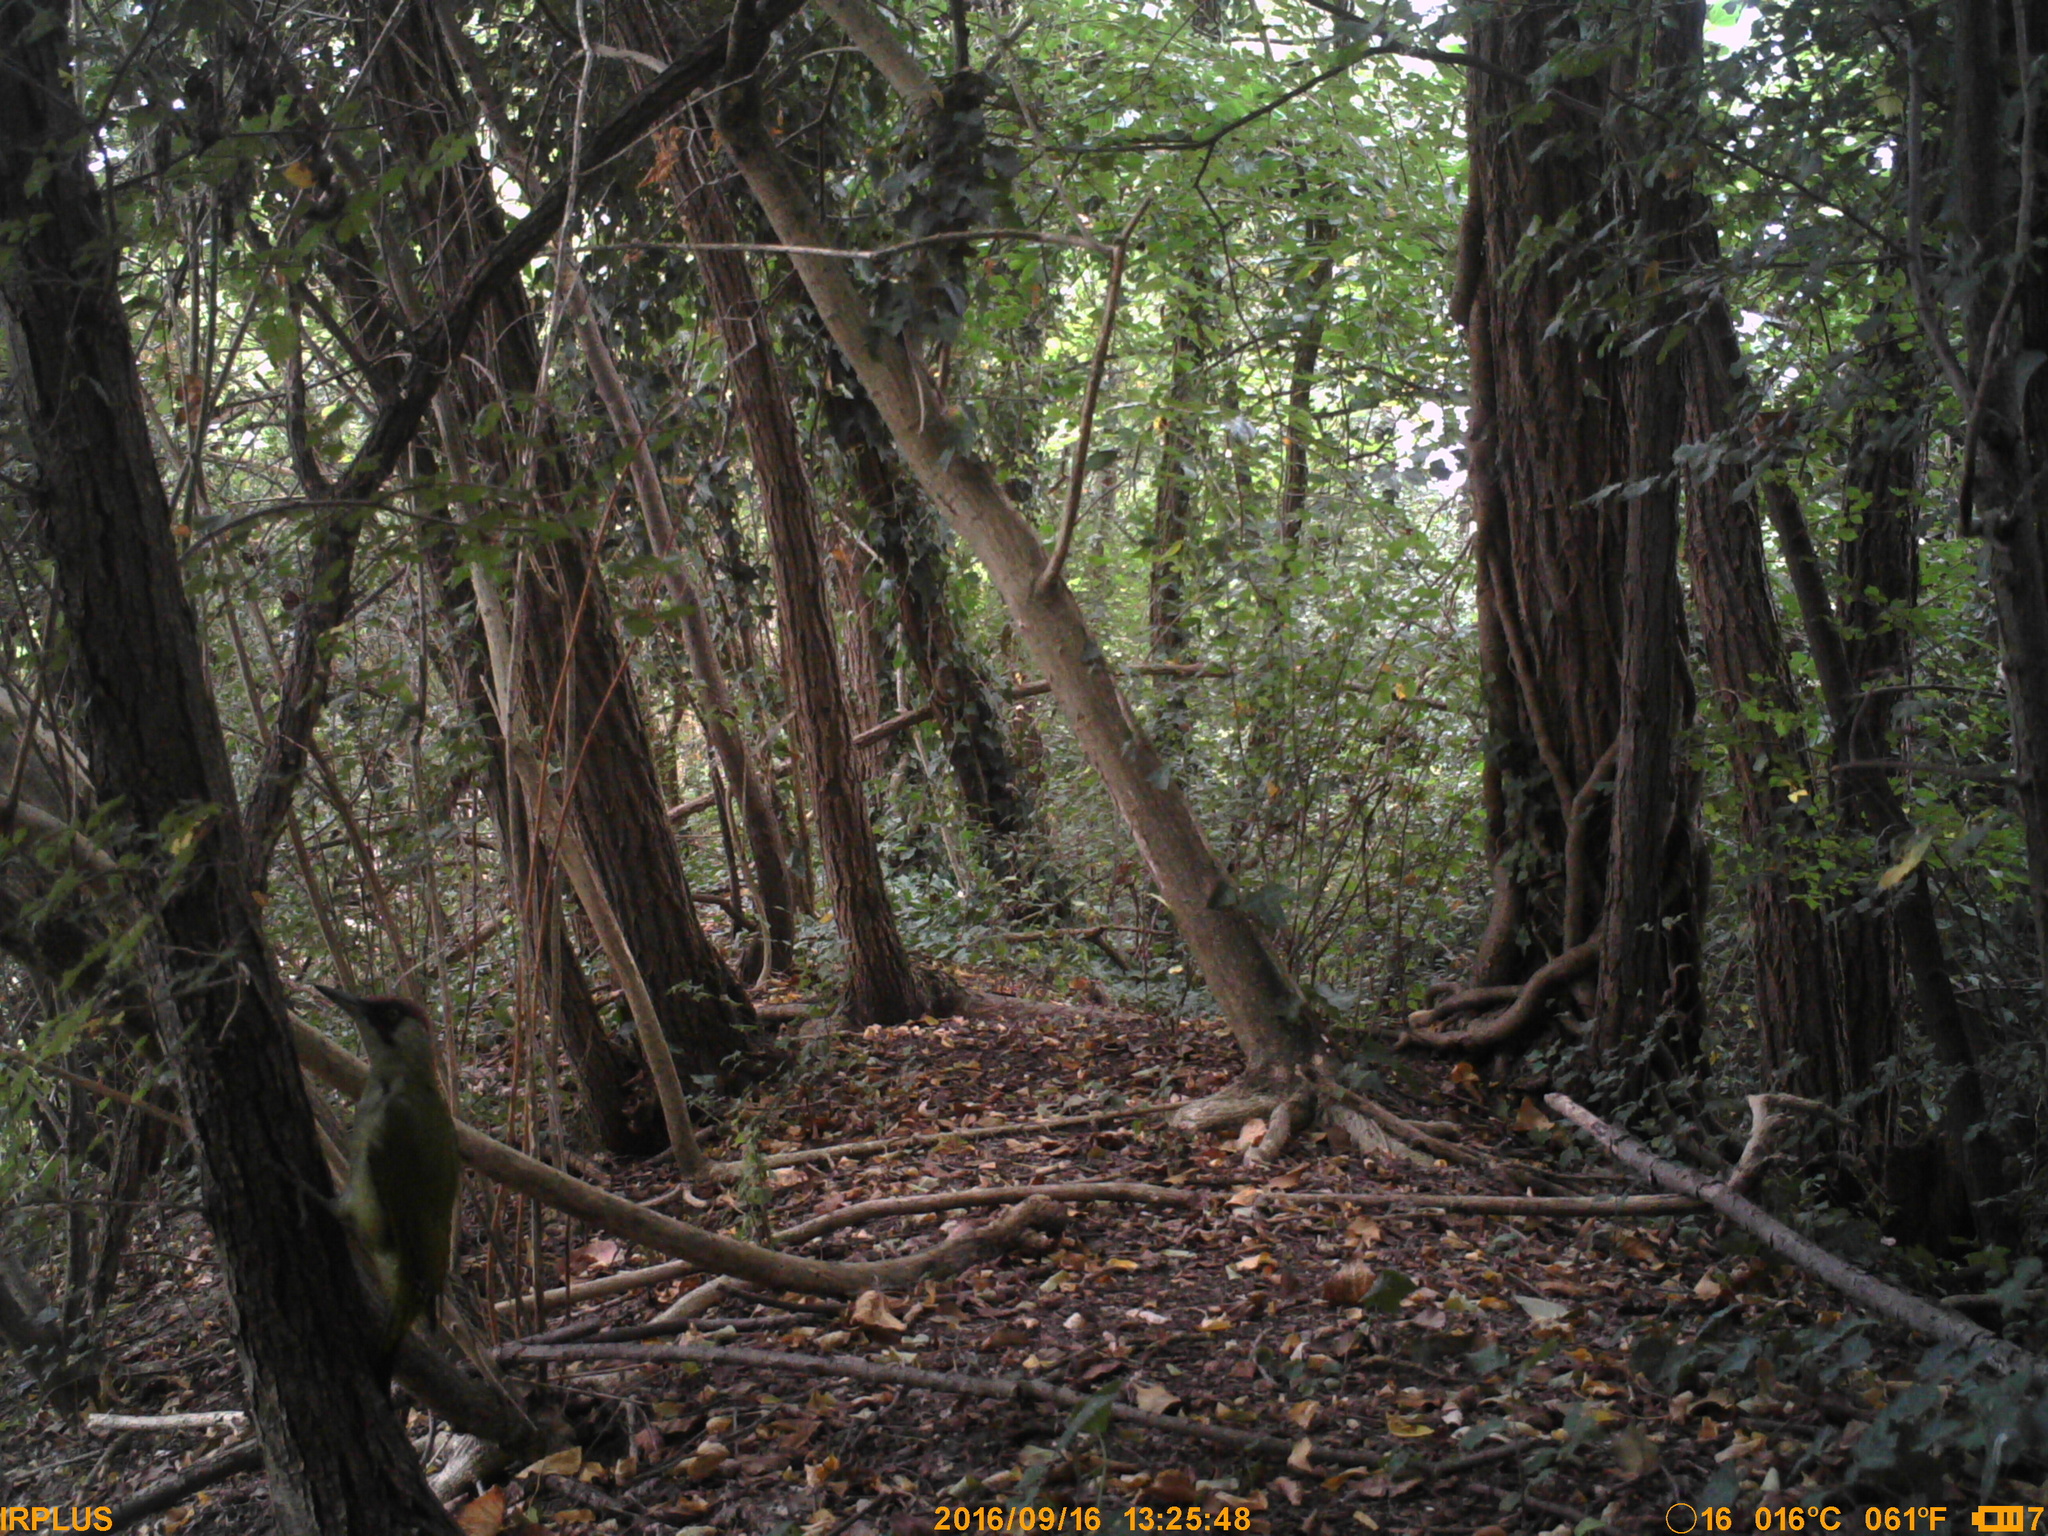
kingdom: Animalia
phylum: Chordata
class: Aves
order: Piciformes
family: Picidae
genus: Picus
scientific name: Picus viridis
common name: European green woodpecker
